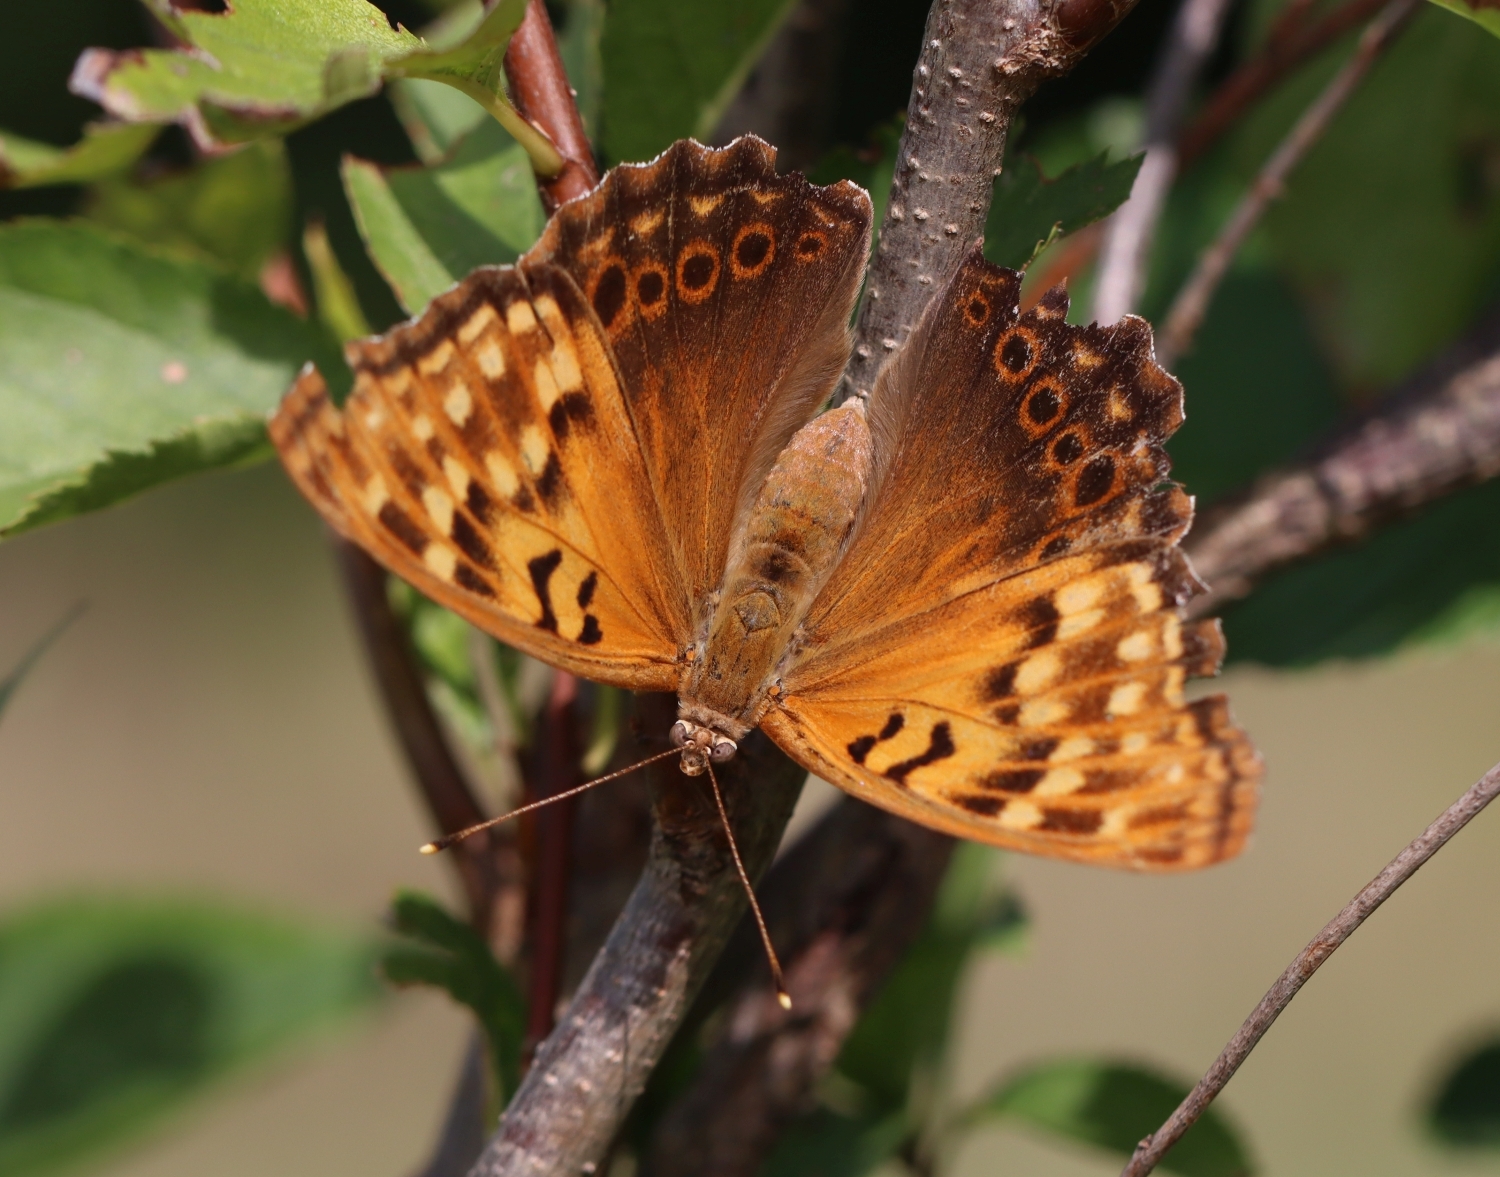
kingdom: Animalia
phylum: Arthropoda
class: Insecta
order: Lepidoptera
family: Nymphalidae
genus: Asterocampa
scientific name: Asterocampa clyton
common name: Tawny emperor
